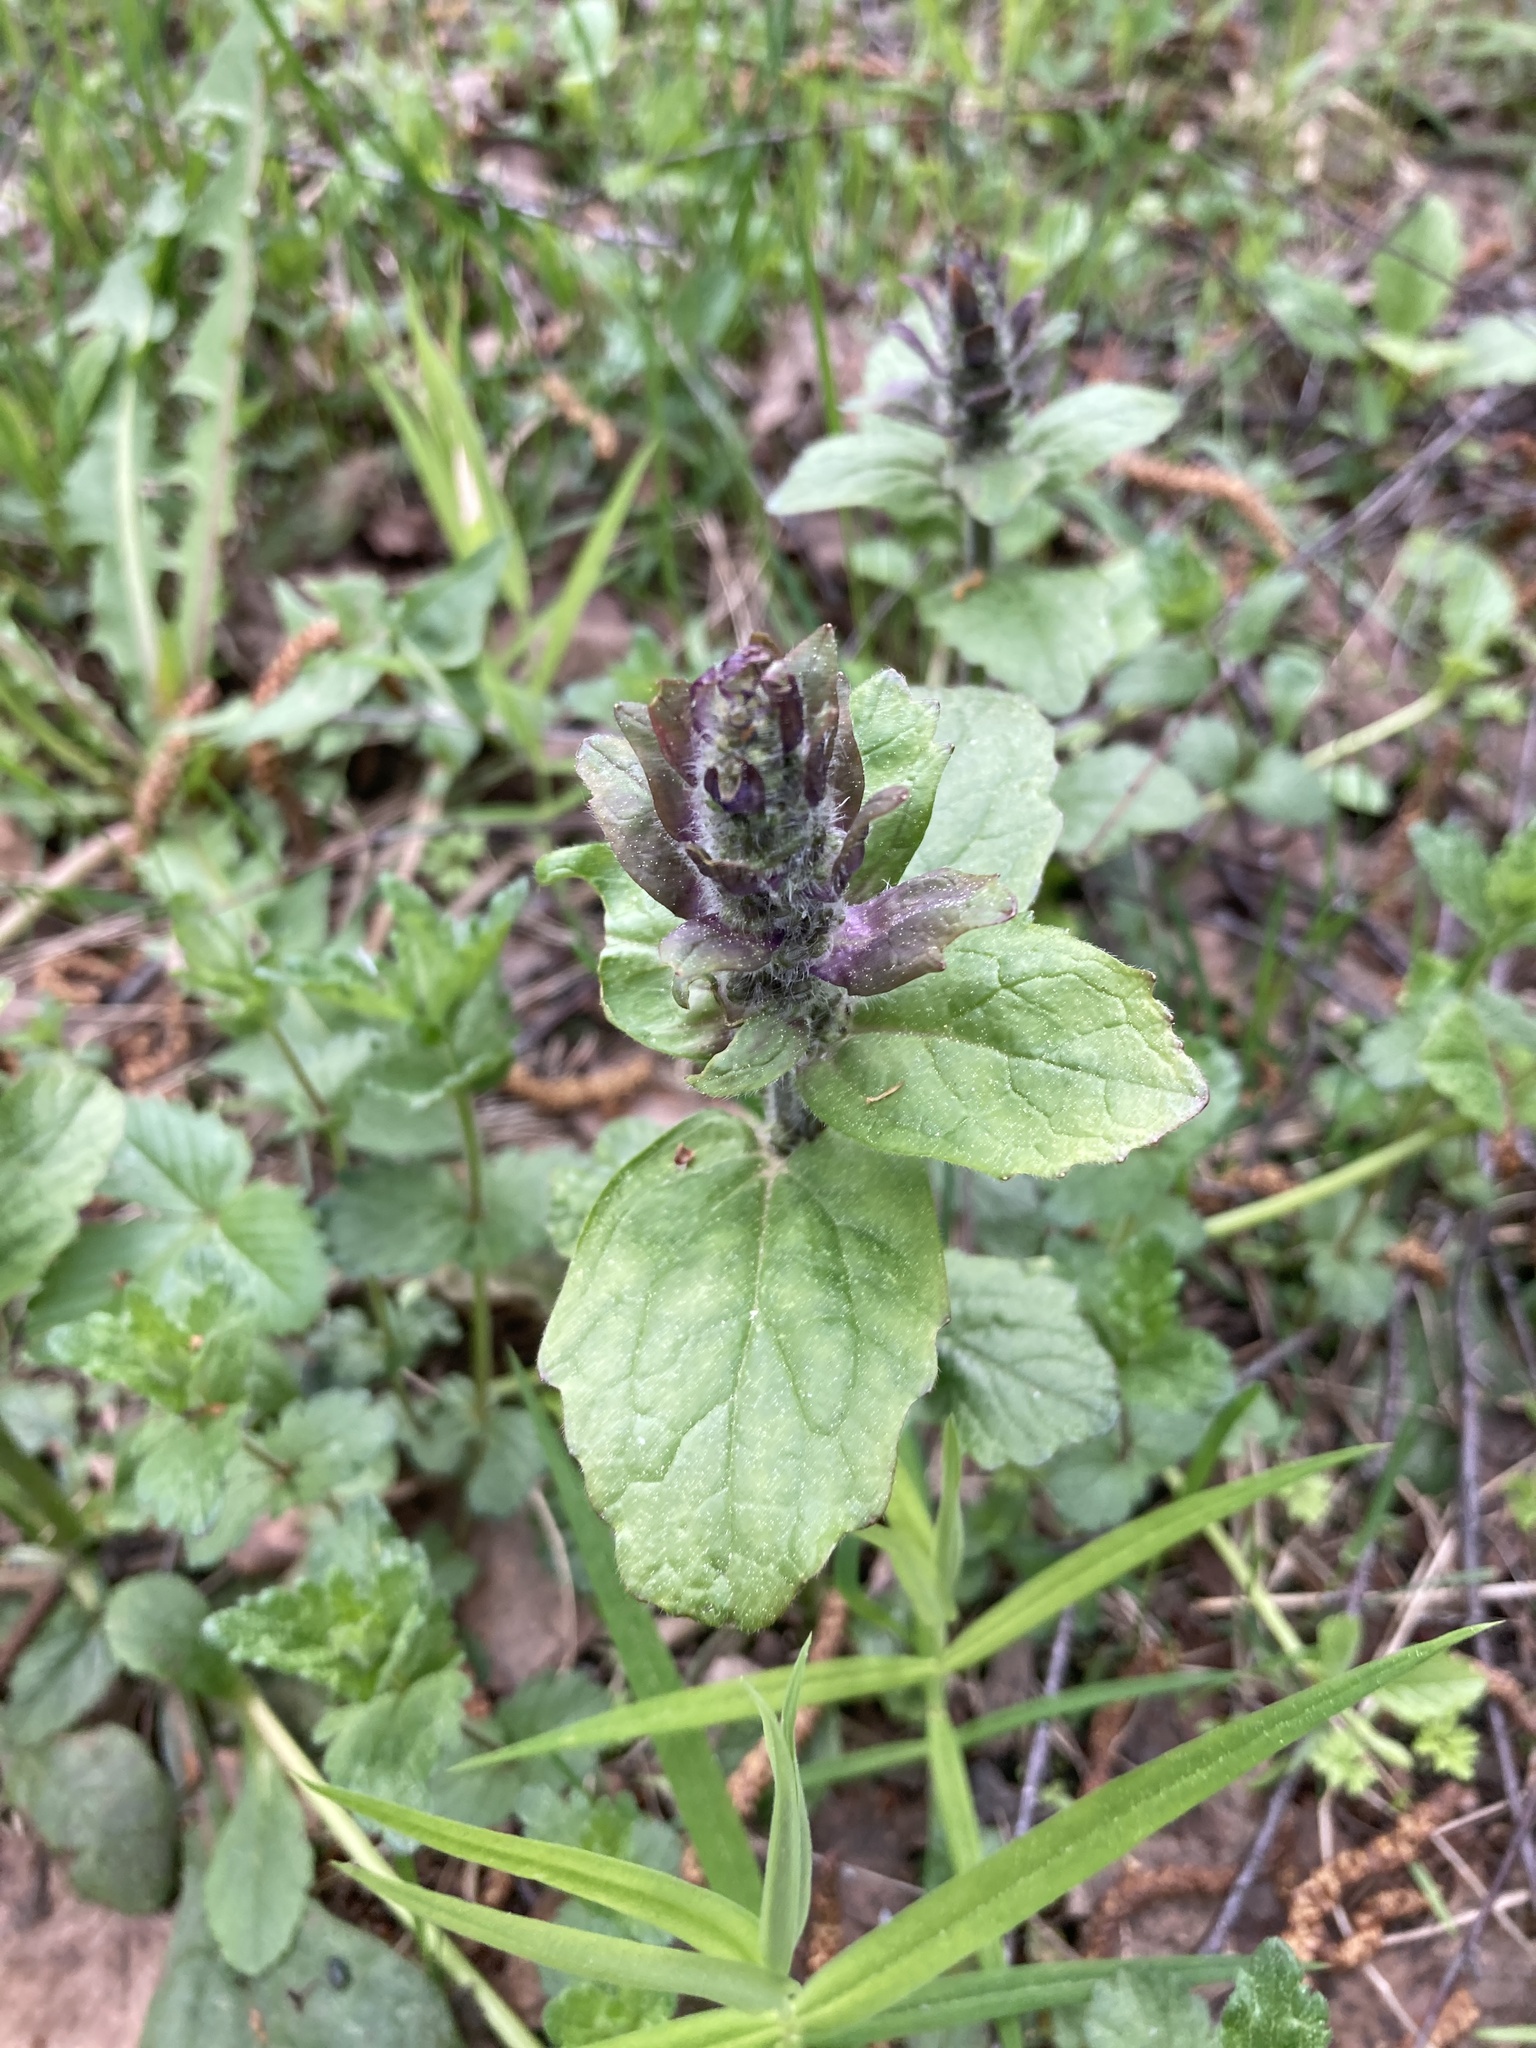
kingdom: Plantae
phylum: Tracheophyta
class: Magnoliopsida
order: Lamiales
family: Lamiaceae
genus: Ajuga
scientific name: Ajuga reptans
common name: Bugle
